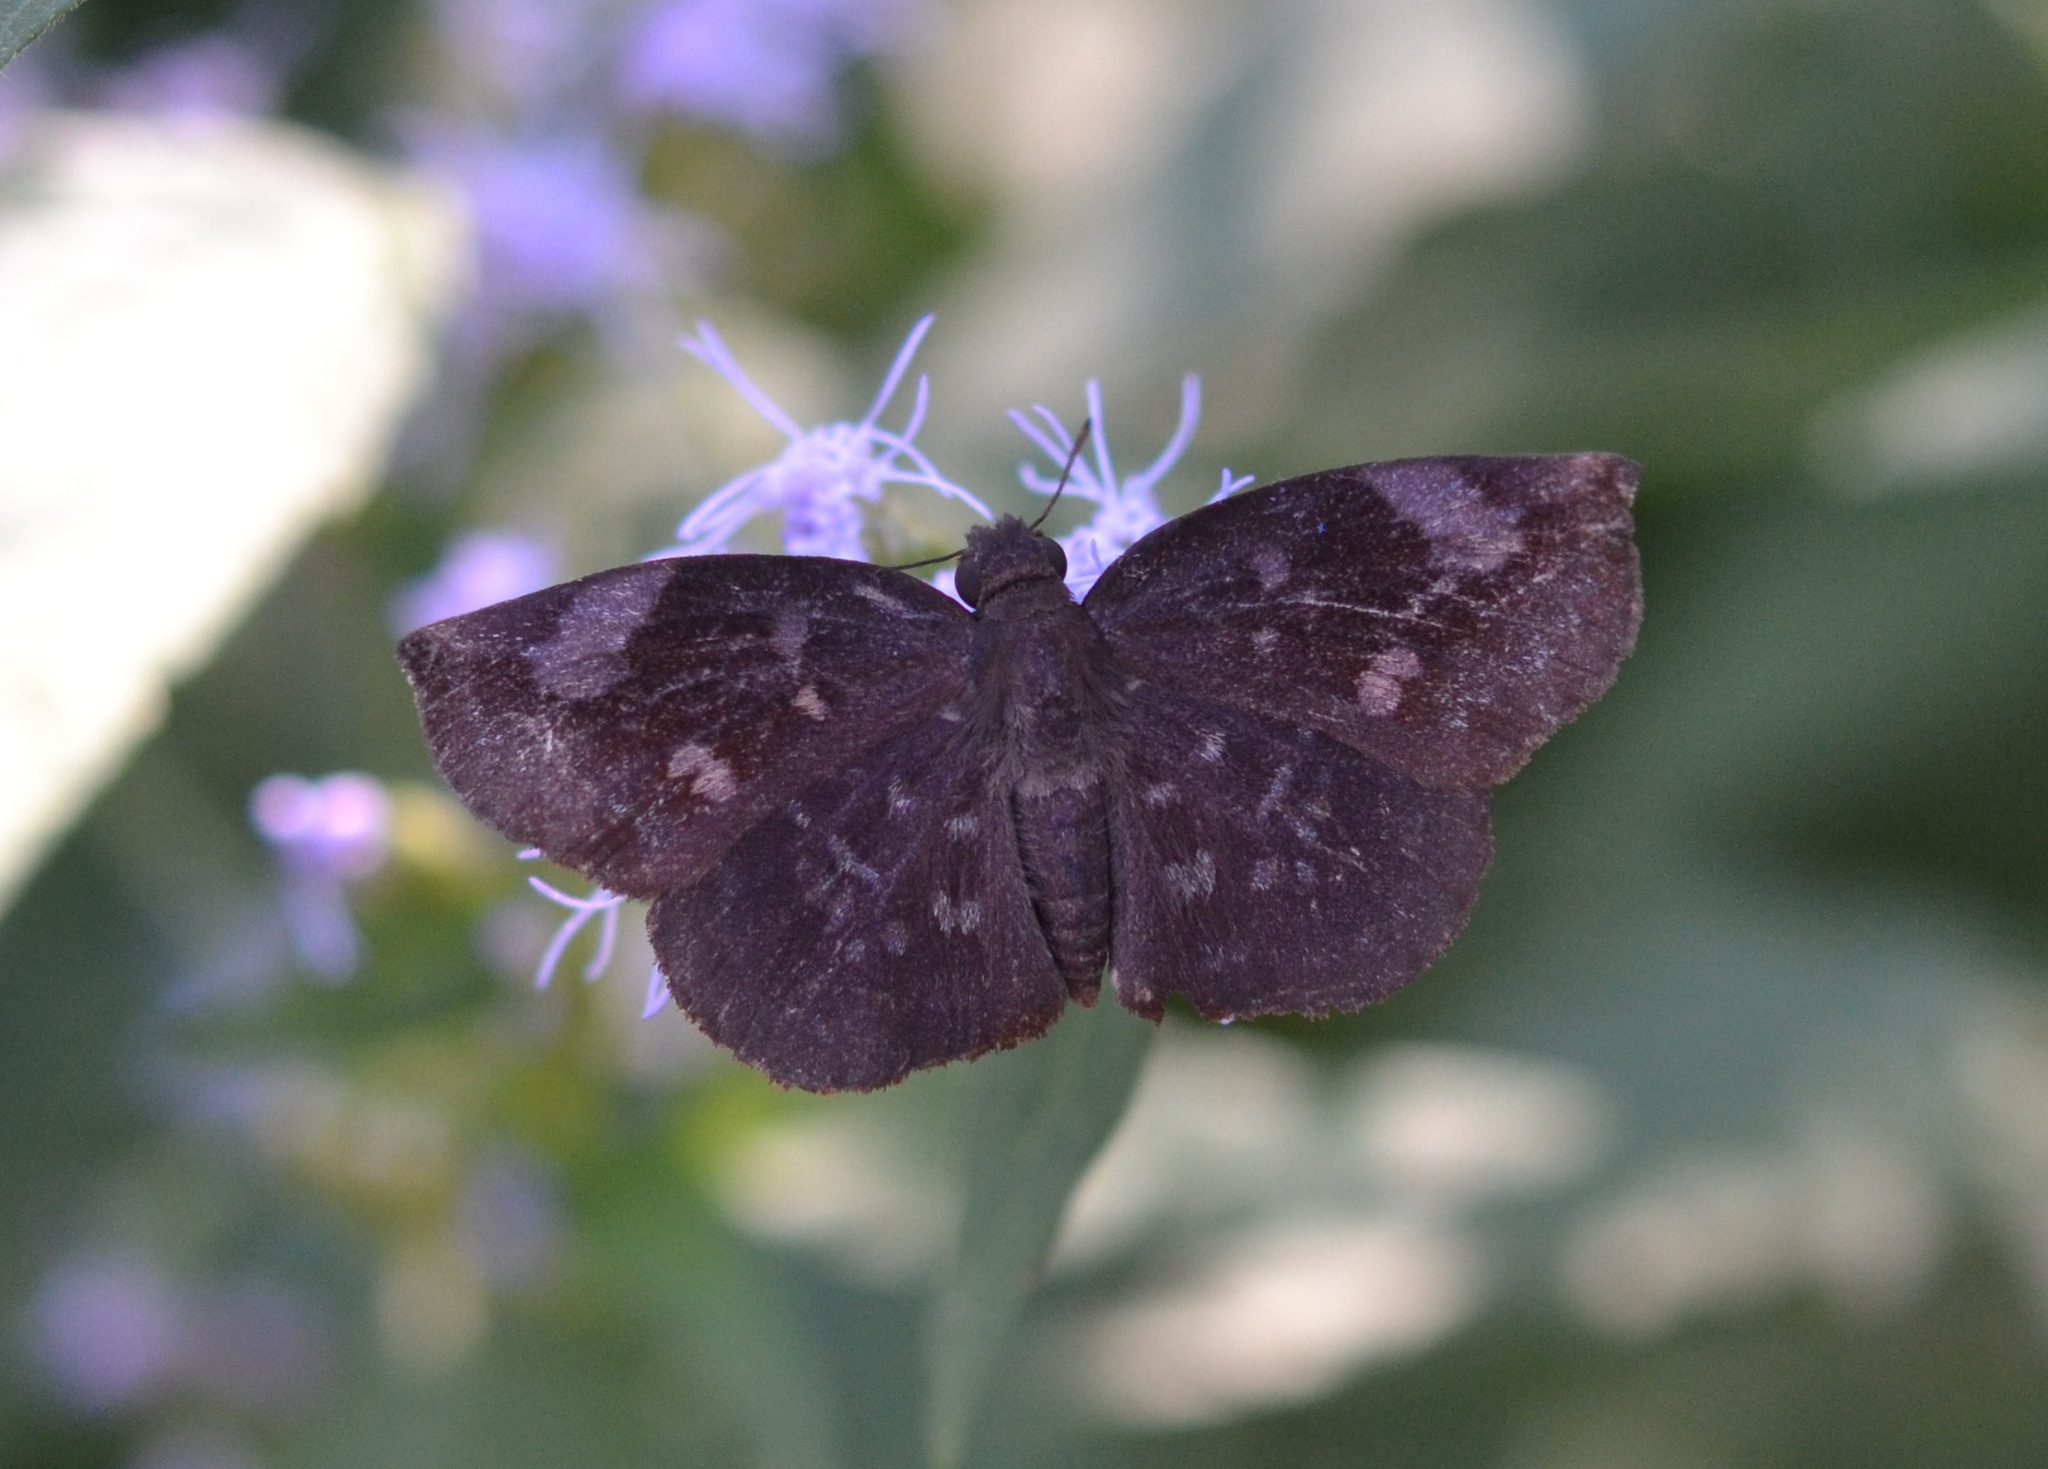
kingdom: Animalia
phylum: Arthropoda
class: Insecta
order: Lepidoptera
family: Hesperiidae
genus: Achlyodes
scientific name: Achlyodes thraso
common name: Sickle-winged skipper
